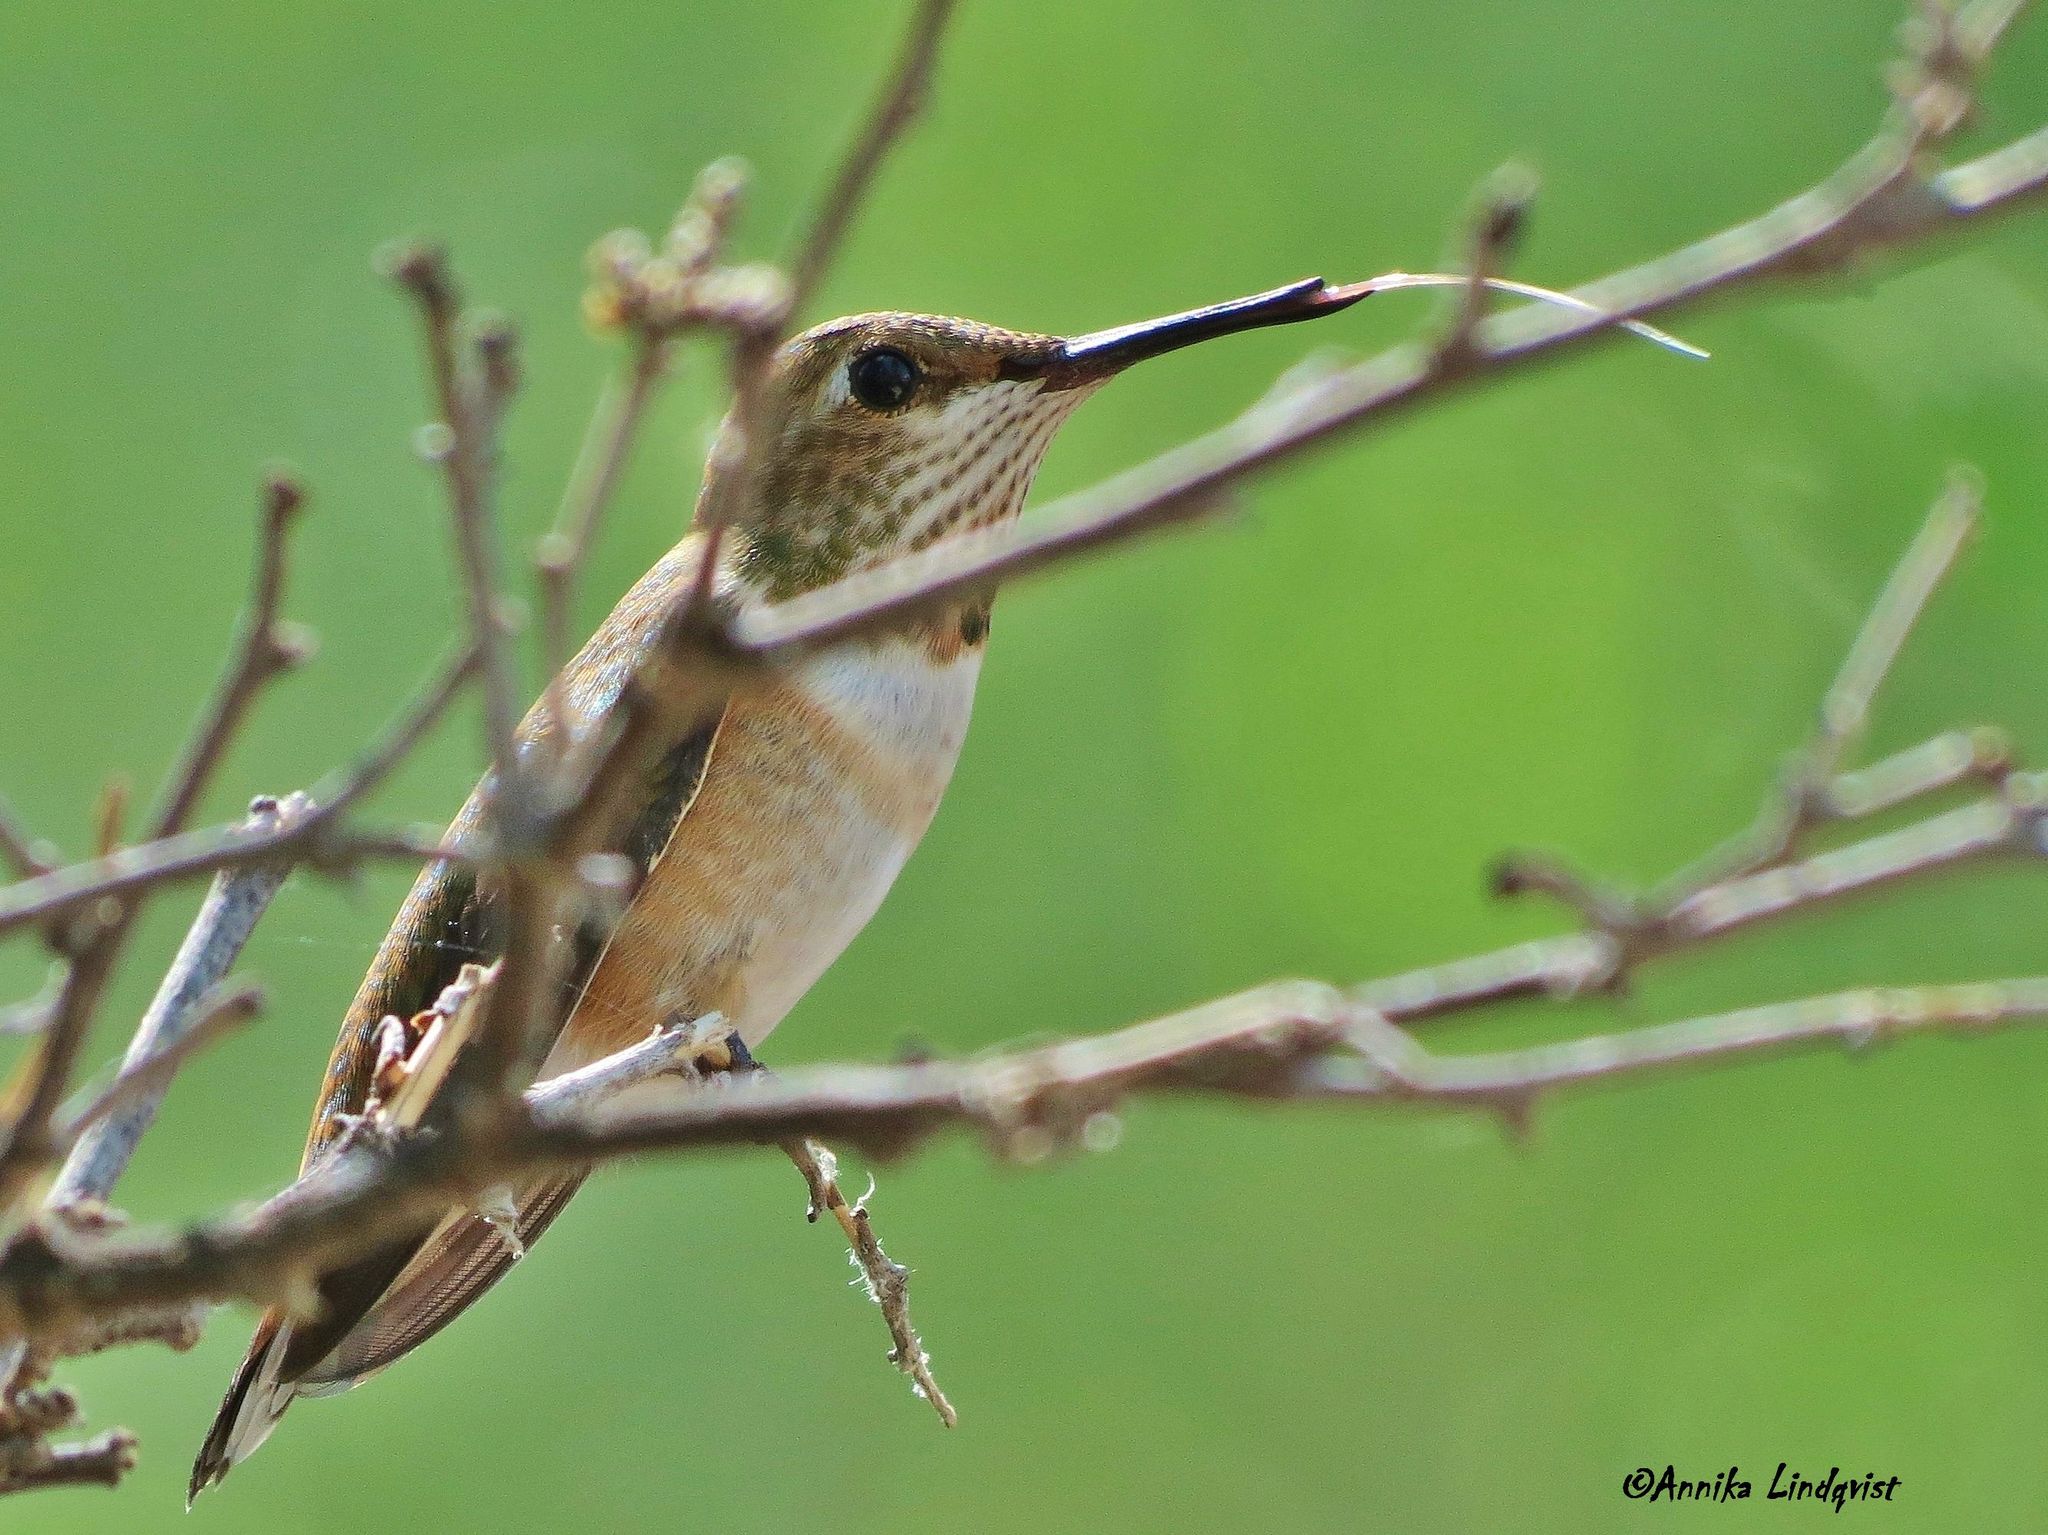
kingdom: Animalia
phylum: Chordata
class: Aves
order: Apodiformes
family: Trochilidae
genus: Selasphorus
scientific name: Selasphorus rufus
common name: Rufous hummingbird
